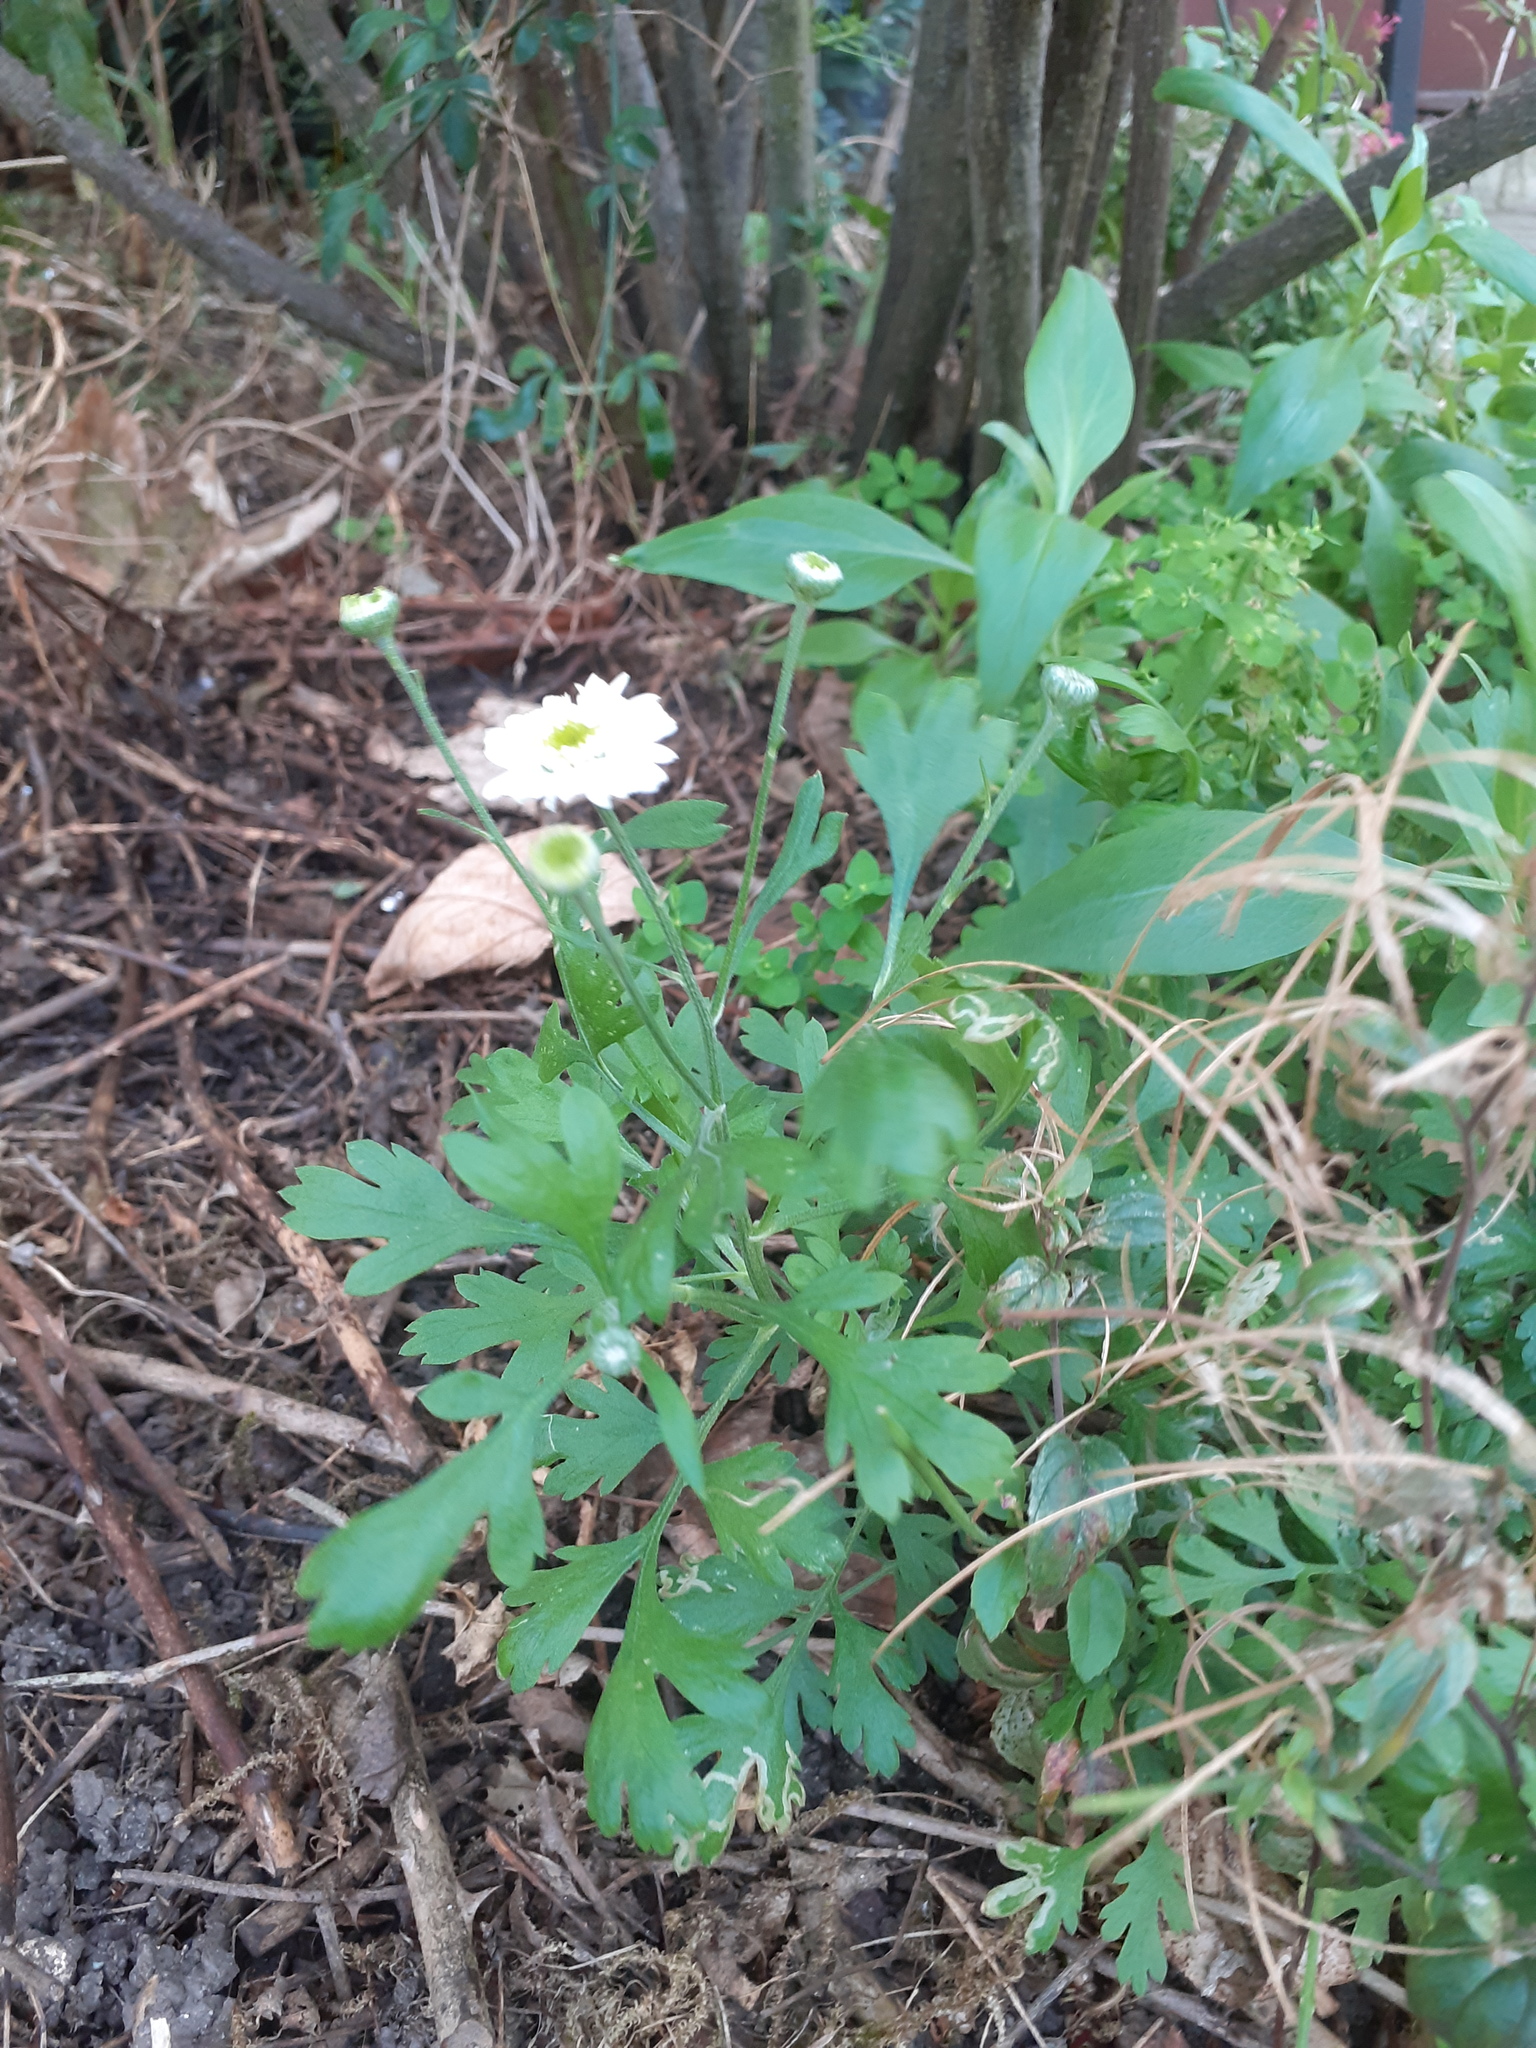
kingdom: Plantae
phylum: Tracheophyta
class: Magnoliopsida
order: Asterales
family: Asteraceae
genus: Tanacetum
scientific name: Tanacetum parthenium
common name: Feverfew
